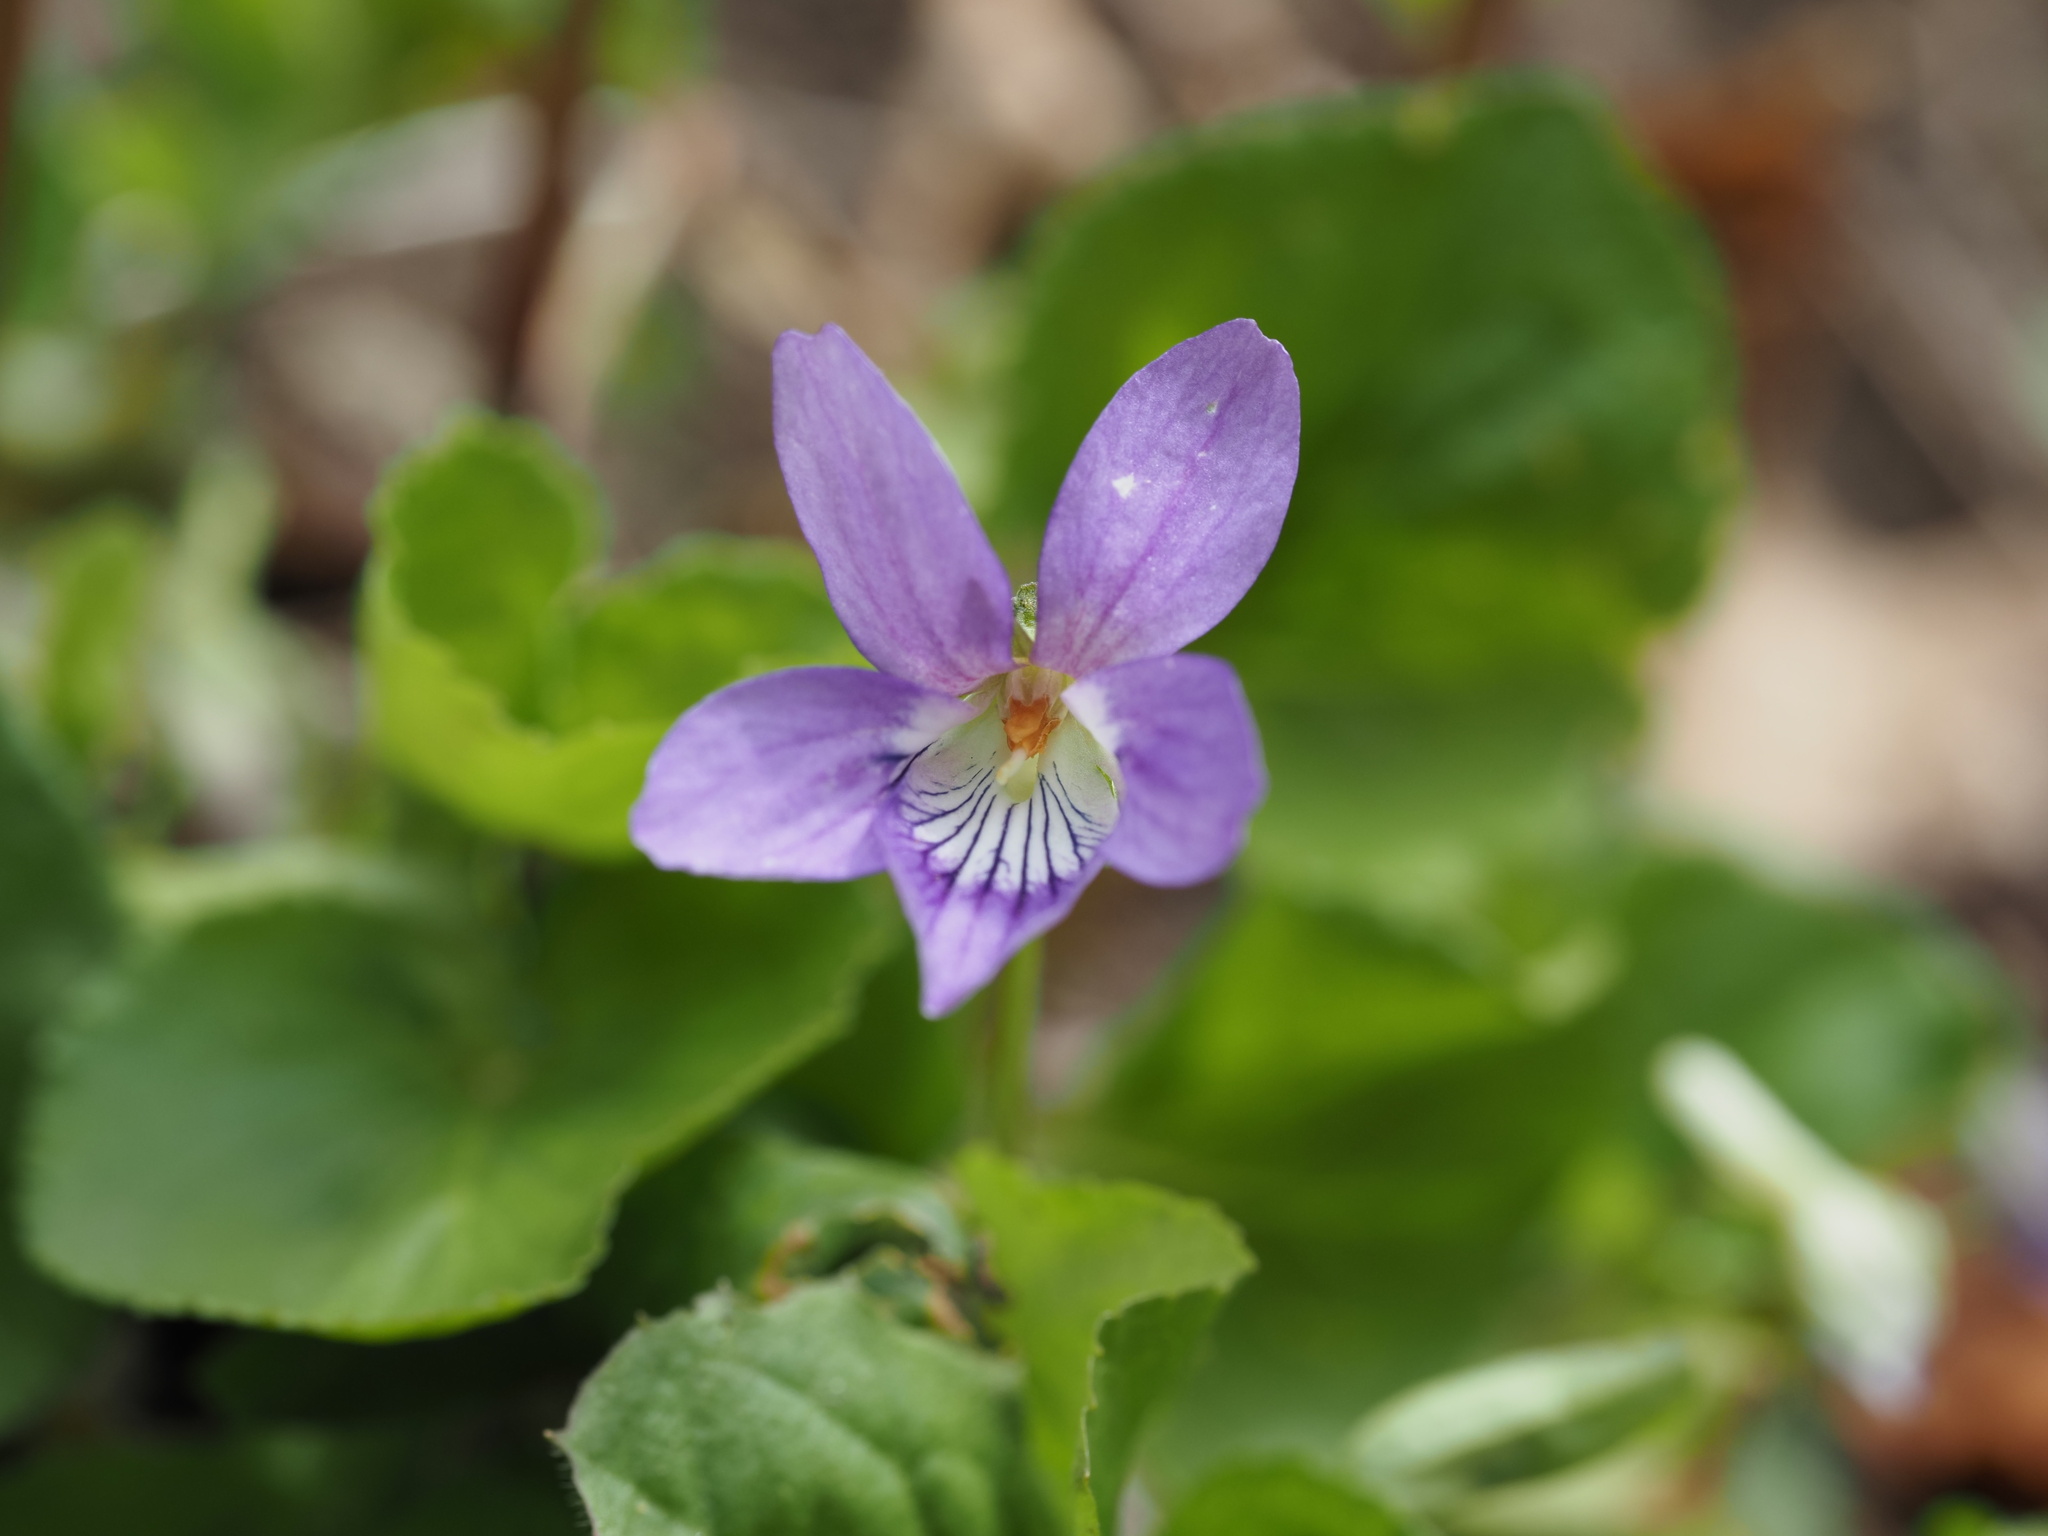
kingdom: Plantae
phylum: Tracheophyta
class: Magnoliopsida
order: Malpighiales
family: Violaceae
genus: Viola
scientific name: Viola kusanoana
